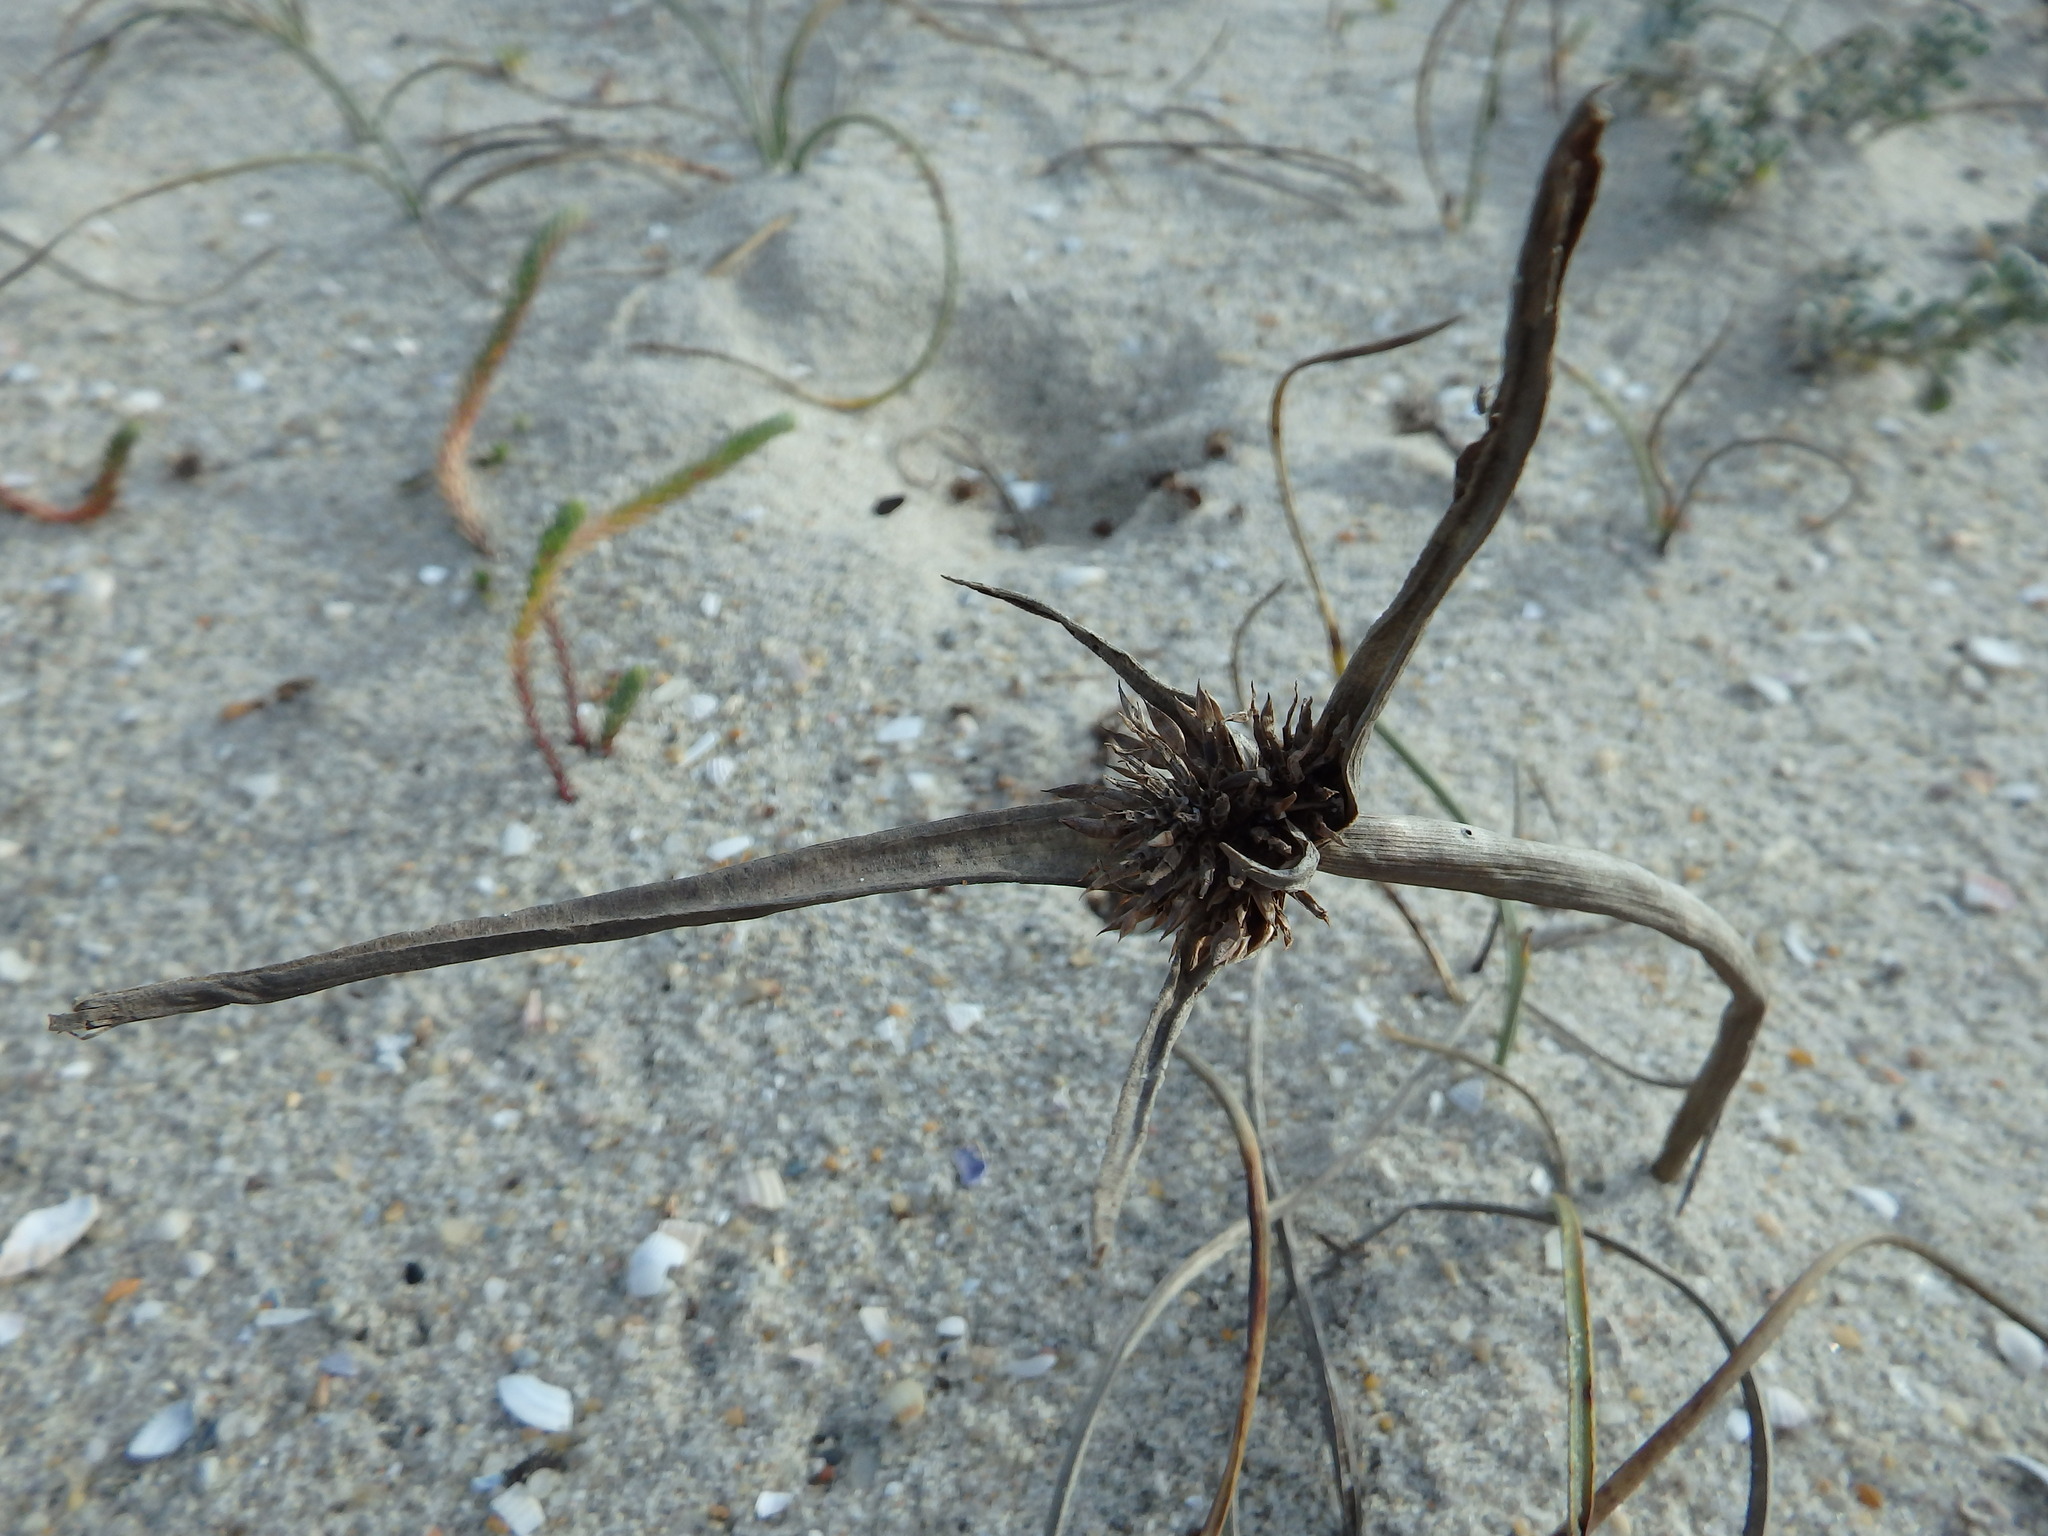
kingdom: Plantae
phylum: Tracheophyta
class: Liliopsida
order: Poales
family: Cyperaceae
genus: Cyperus
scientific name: Cyperus capitatus
